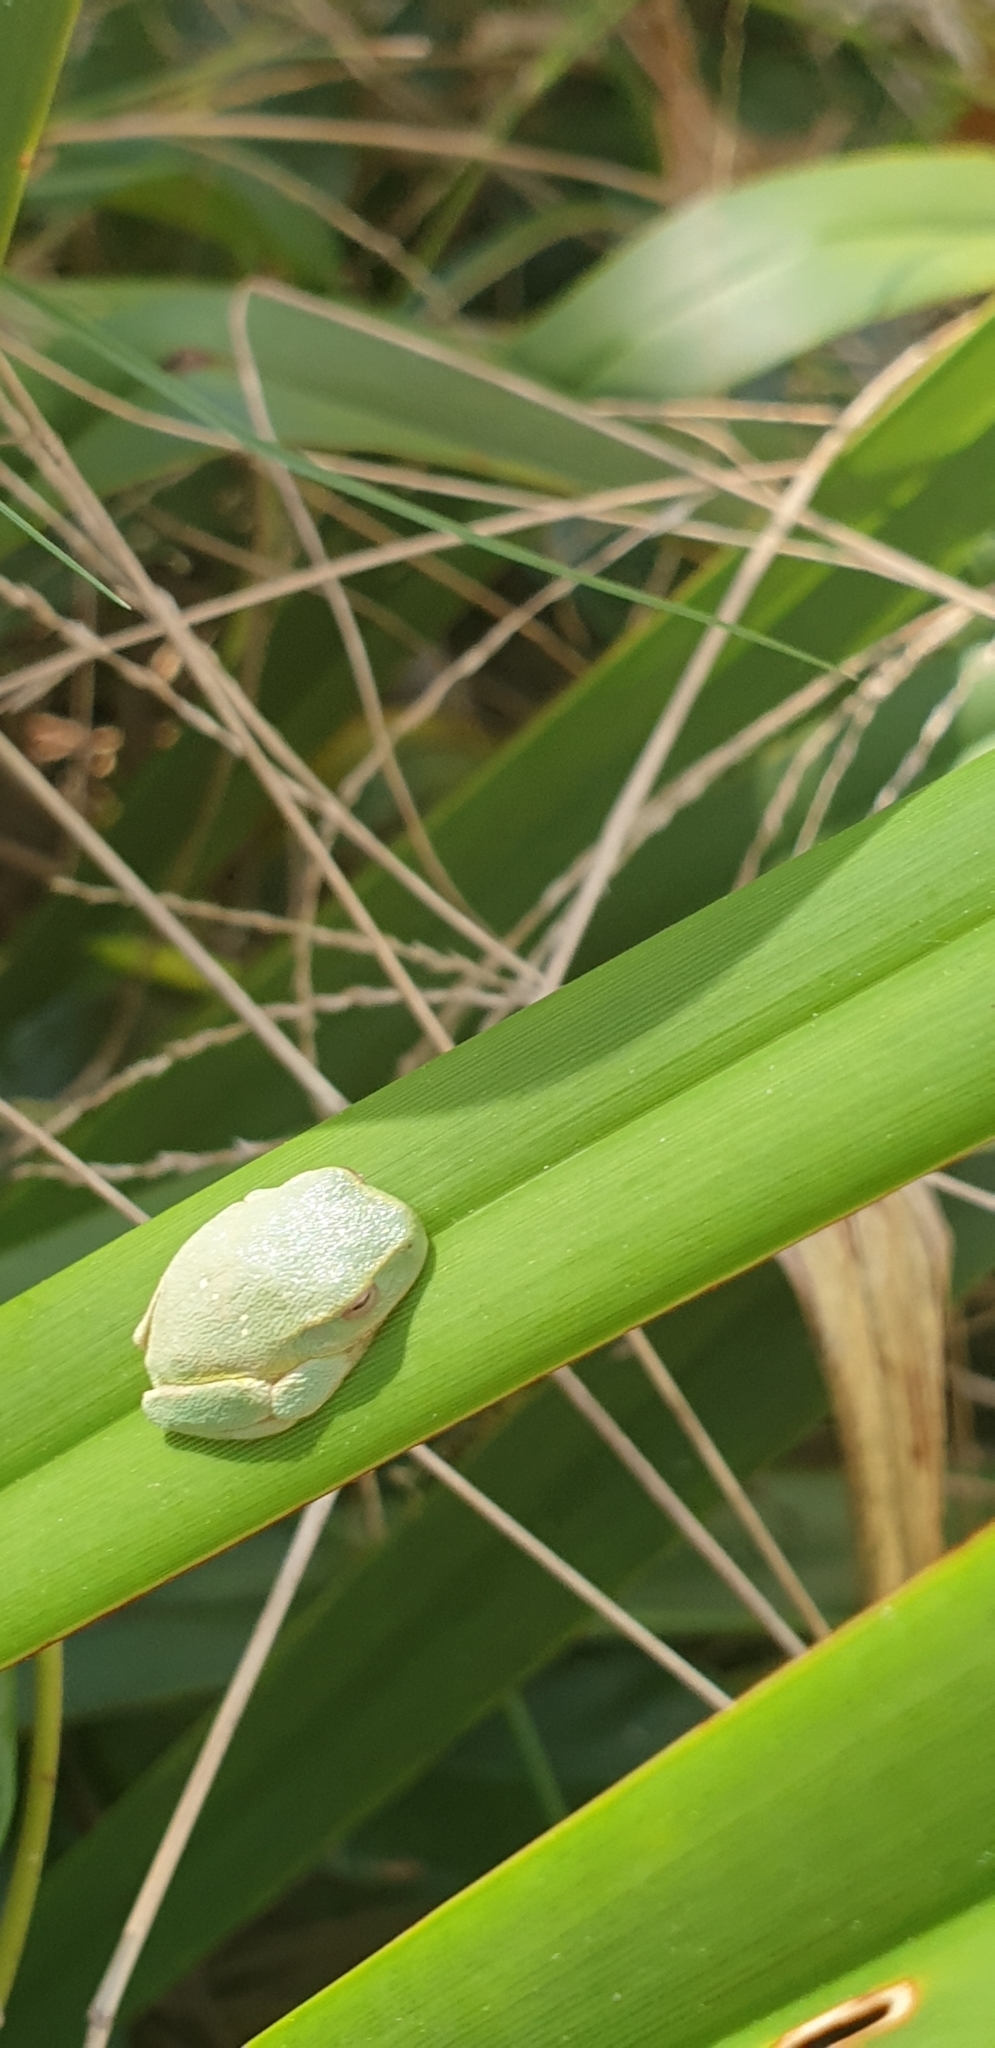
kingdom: Animalia
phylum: Chordata
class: Amphibia
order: Anura
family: Pelodryadidae
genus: Ranoidea
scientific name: Ranoidea gracilenta
